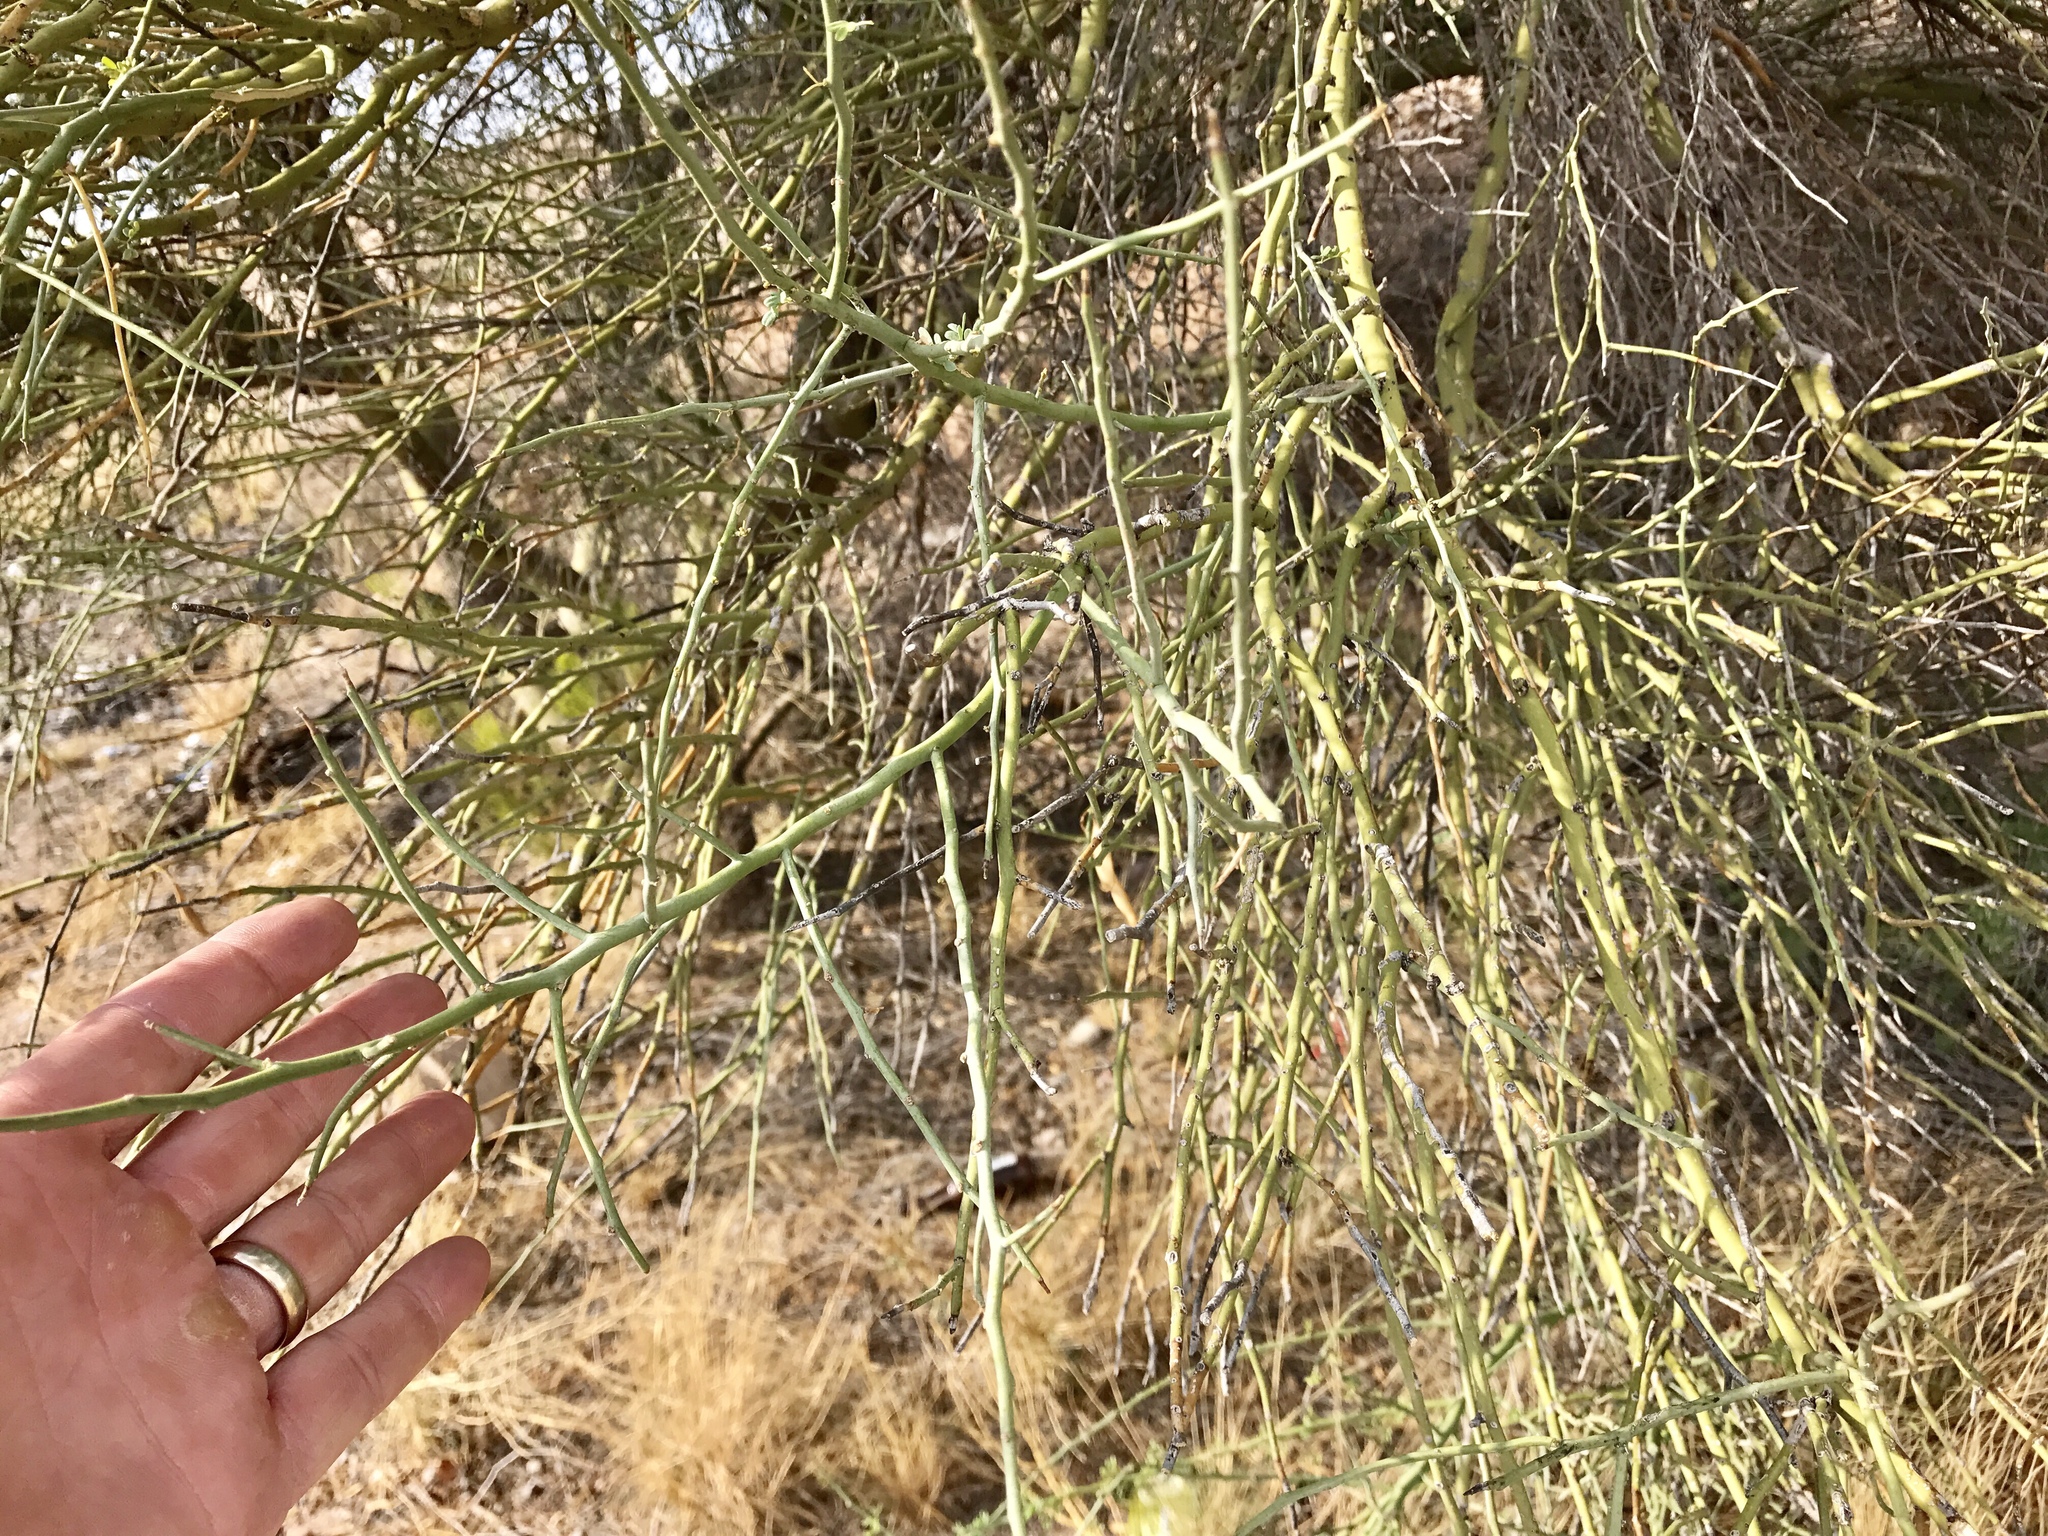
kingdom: Plantae
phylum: Tracheophyta
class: Magnoliopsida
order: Fabales
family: Fabaceae
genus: Parkinsonia
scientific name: Parkinsonia florida
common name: Blue paloverde
